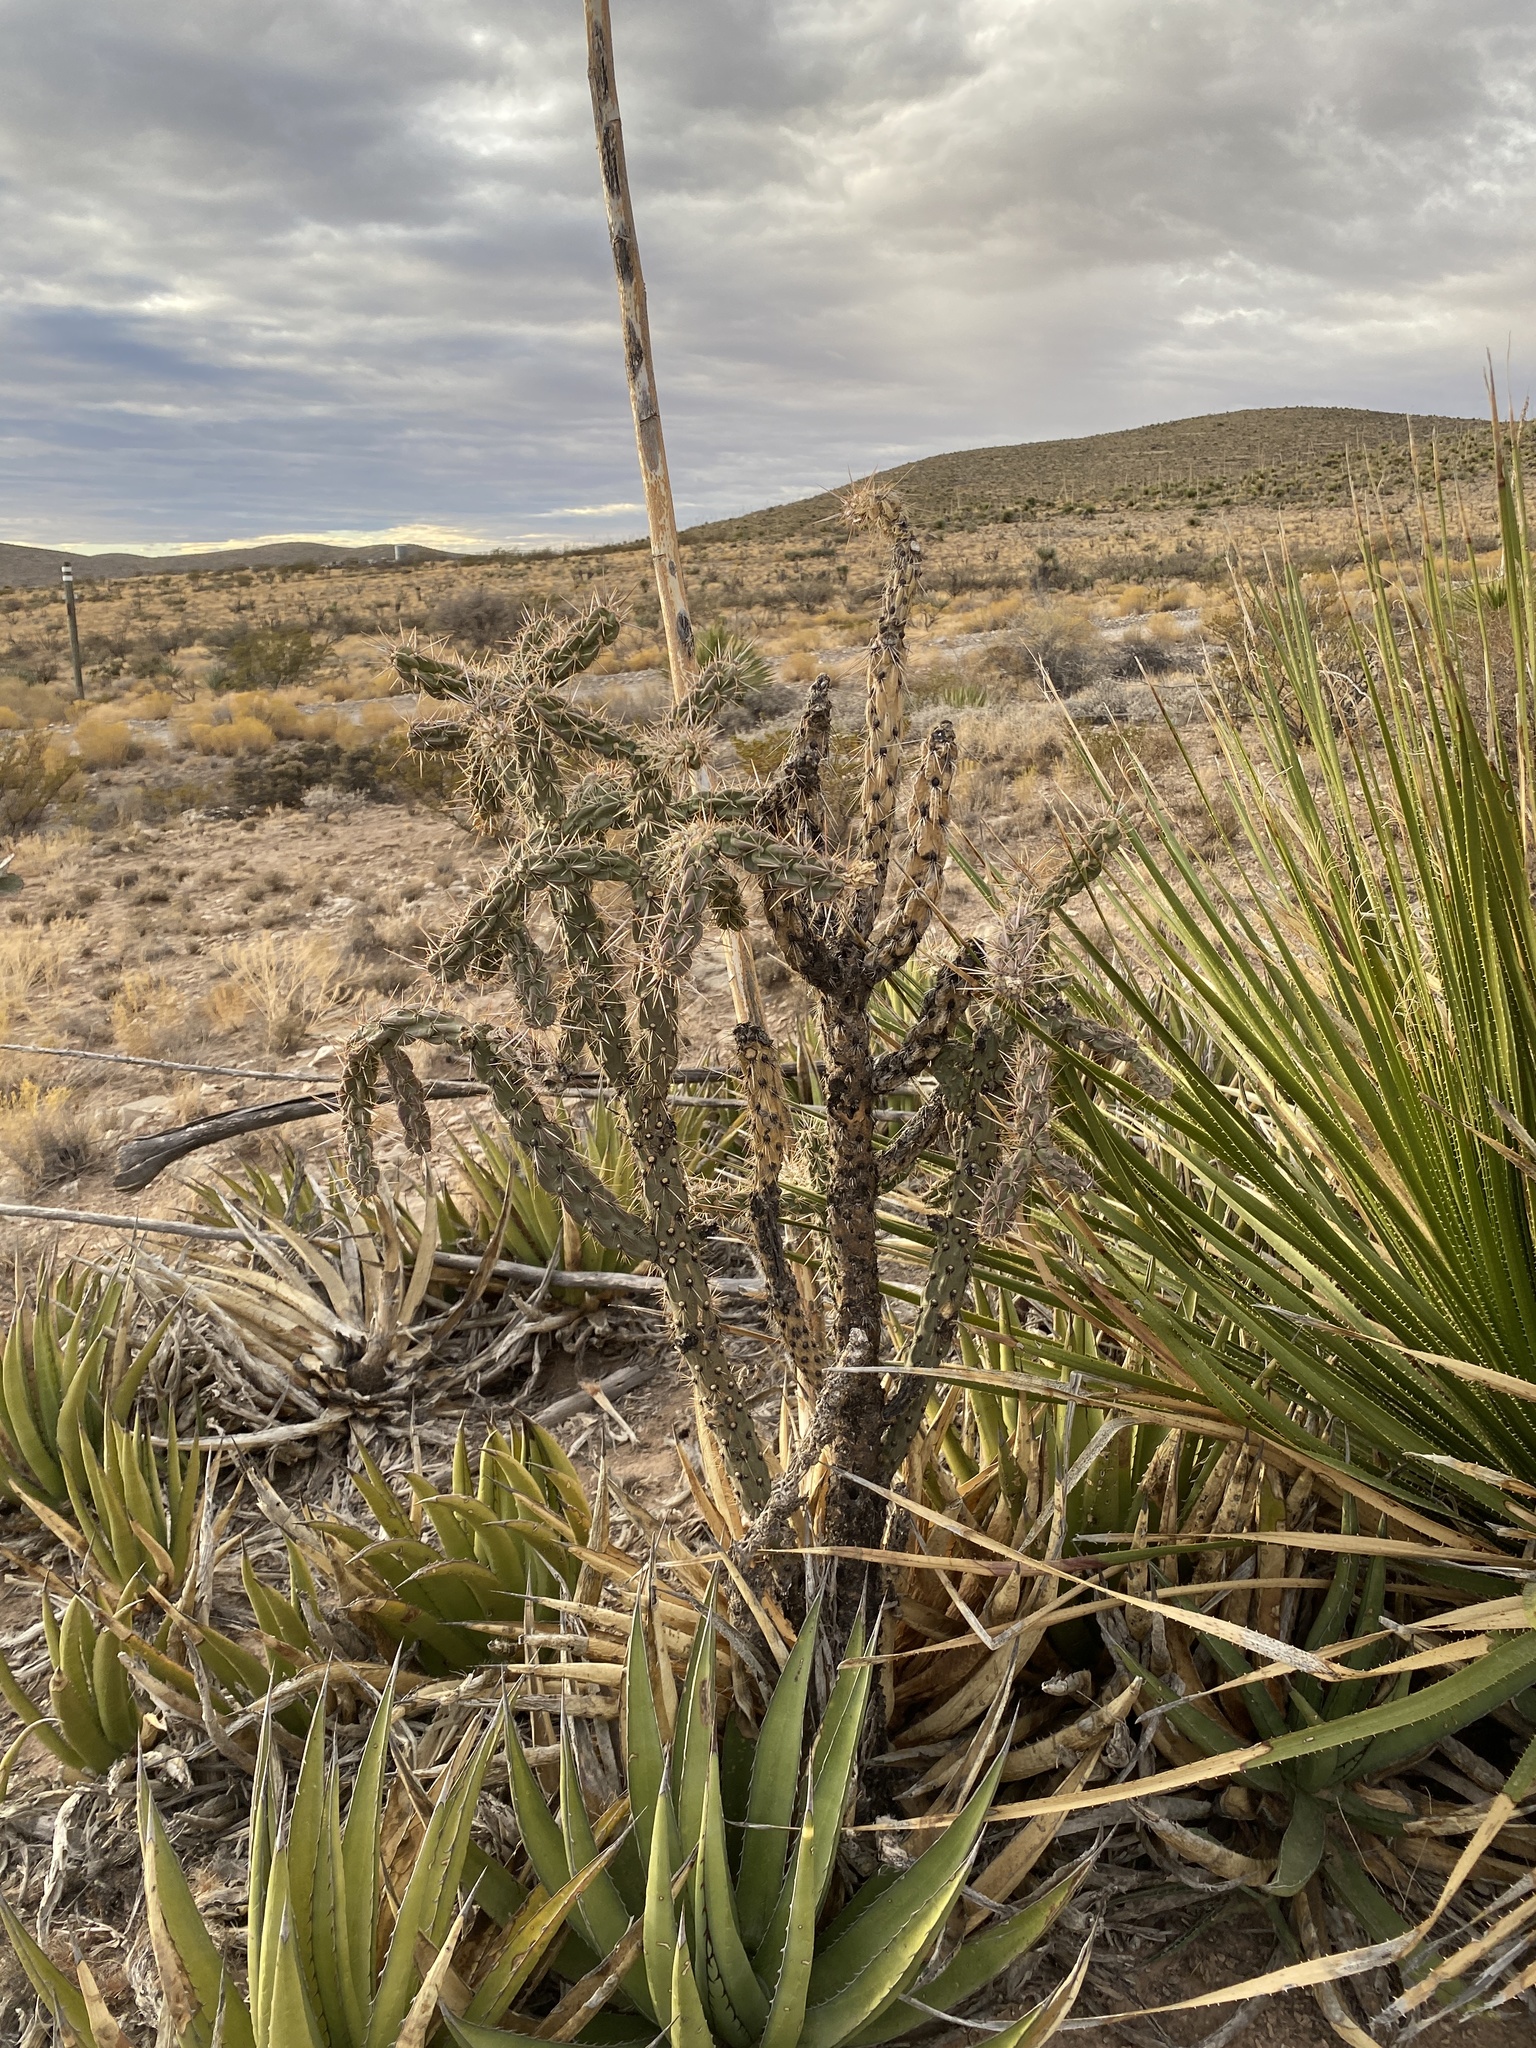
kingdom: Plantae
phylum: Tracheophyta
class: Magnoliopsida
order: Caryophyllales
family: Cactaceae
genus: Cylindropuntia
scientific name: Cylindropuntia imbricata
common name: Candelabrum cactus
